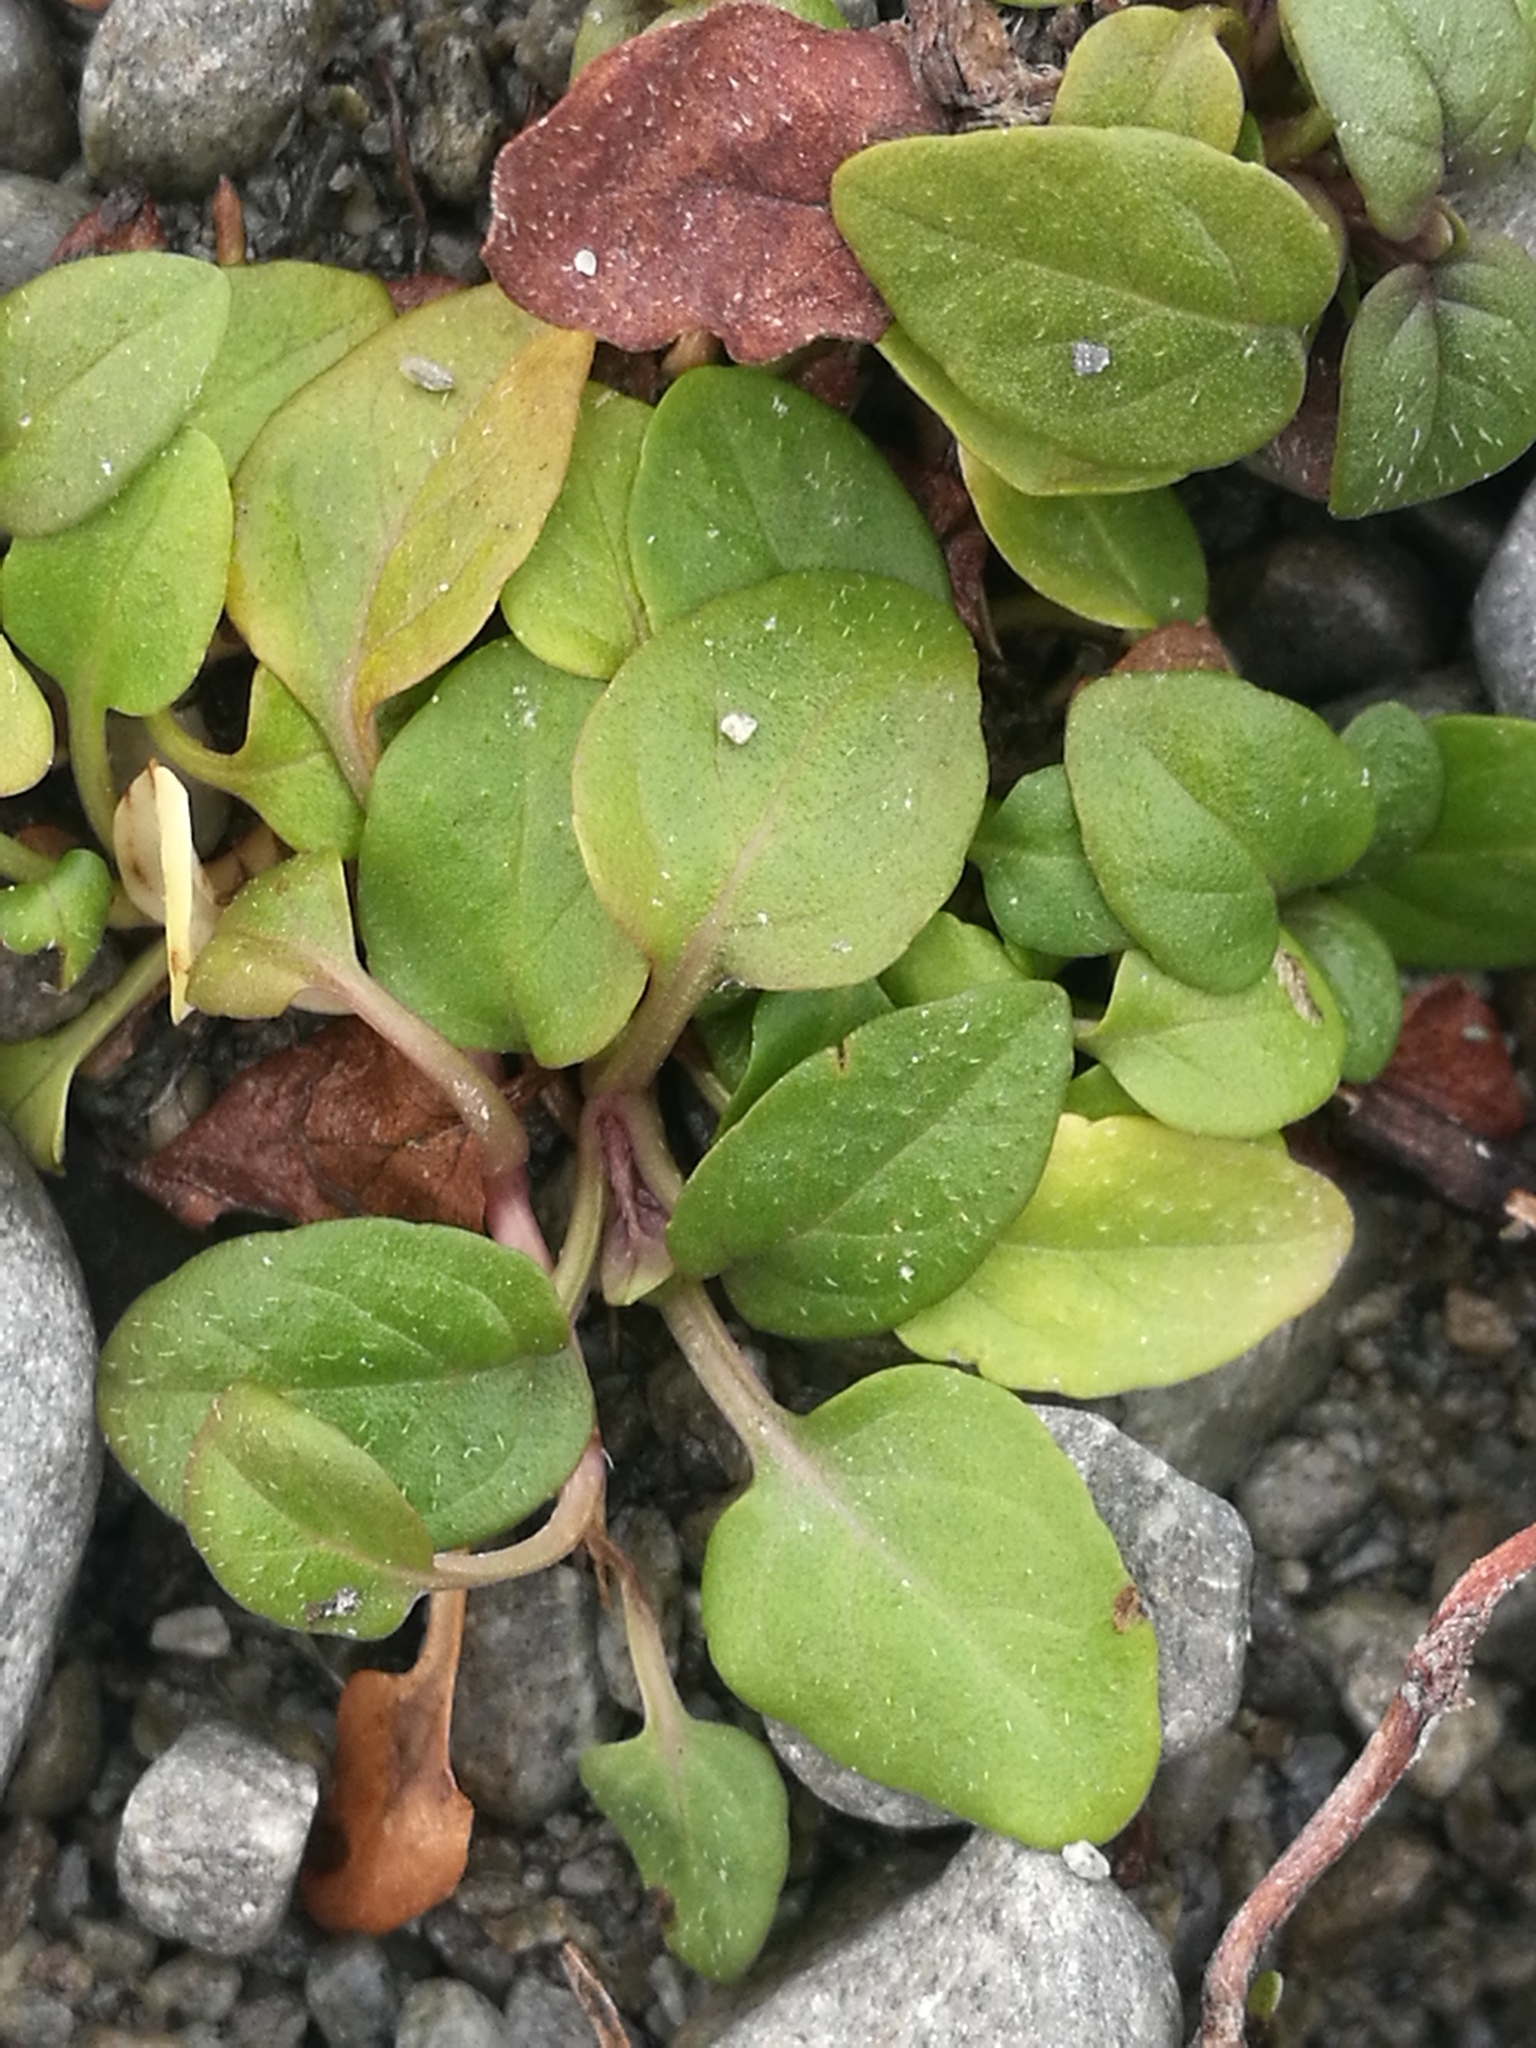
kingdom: Plantae
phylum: Tracheophyta
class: Magnoliopsida
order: Lamiales
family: Lamiaceae
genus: Prunella
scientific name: Prunella vulgaris
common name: Heal-all
